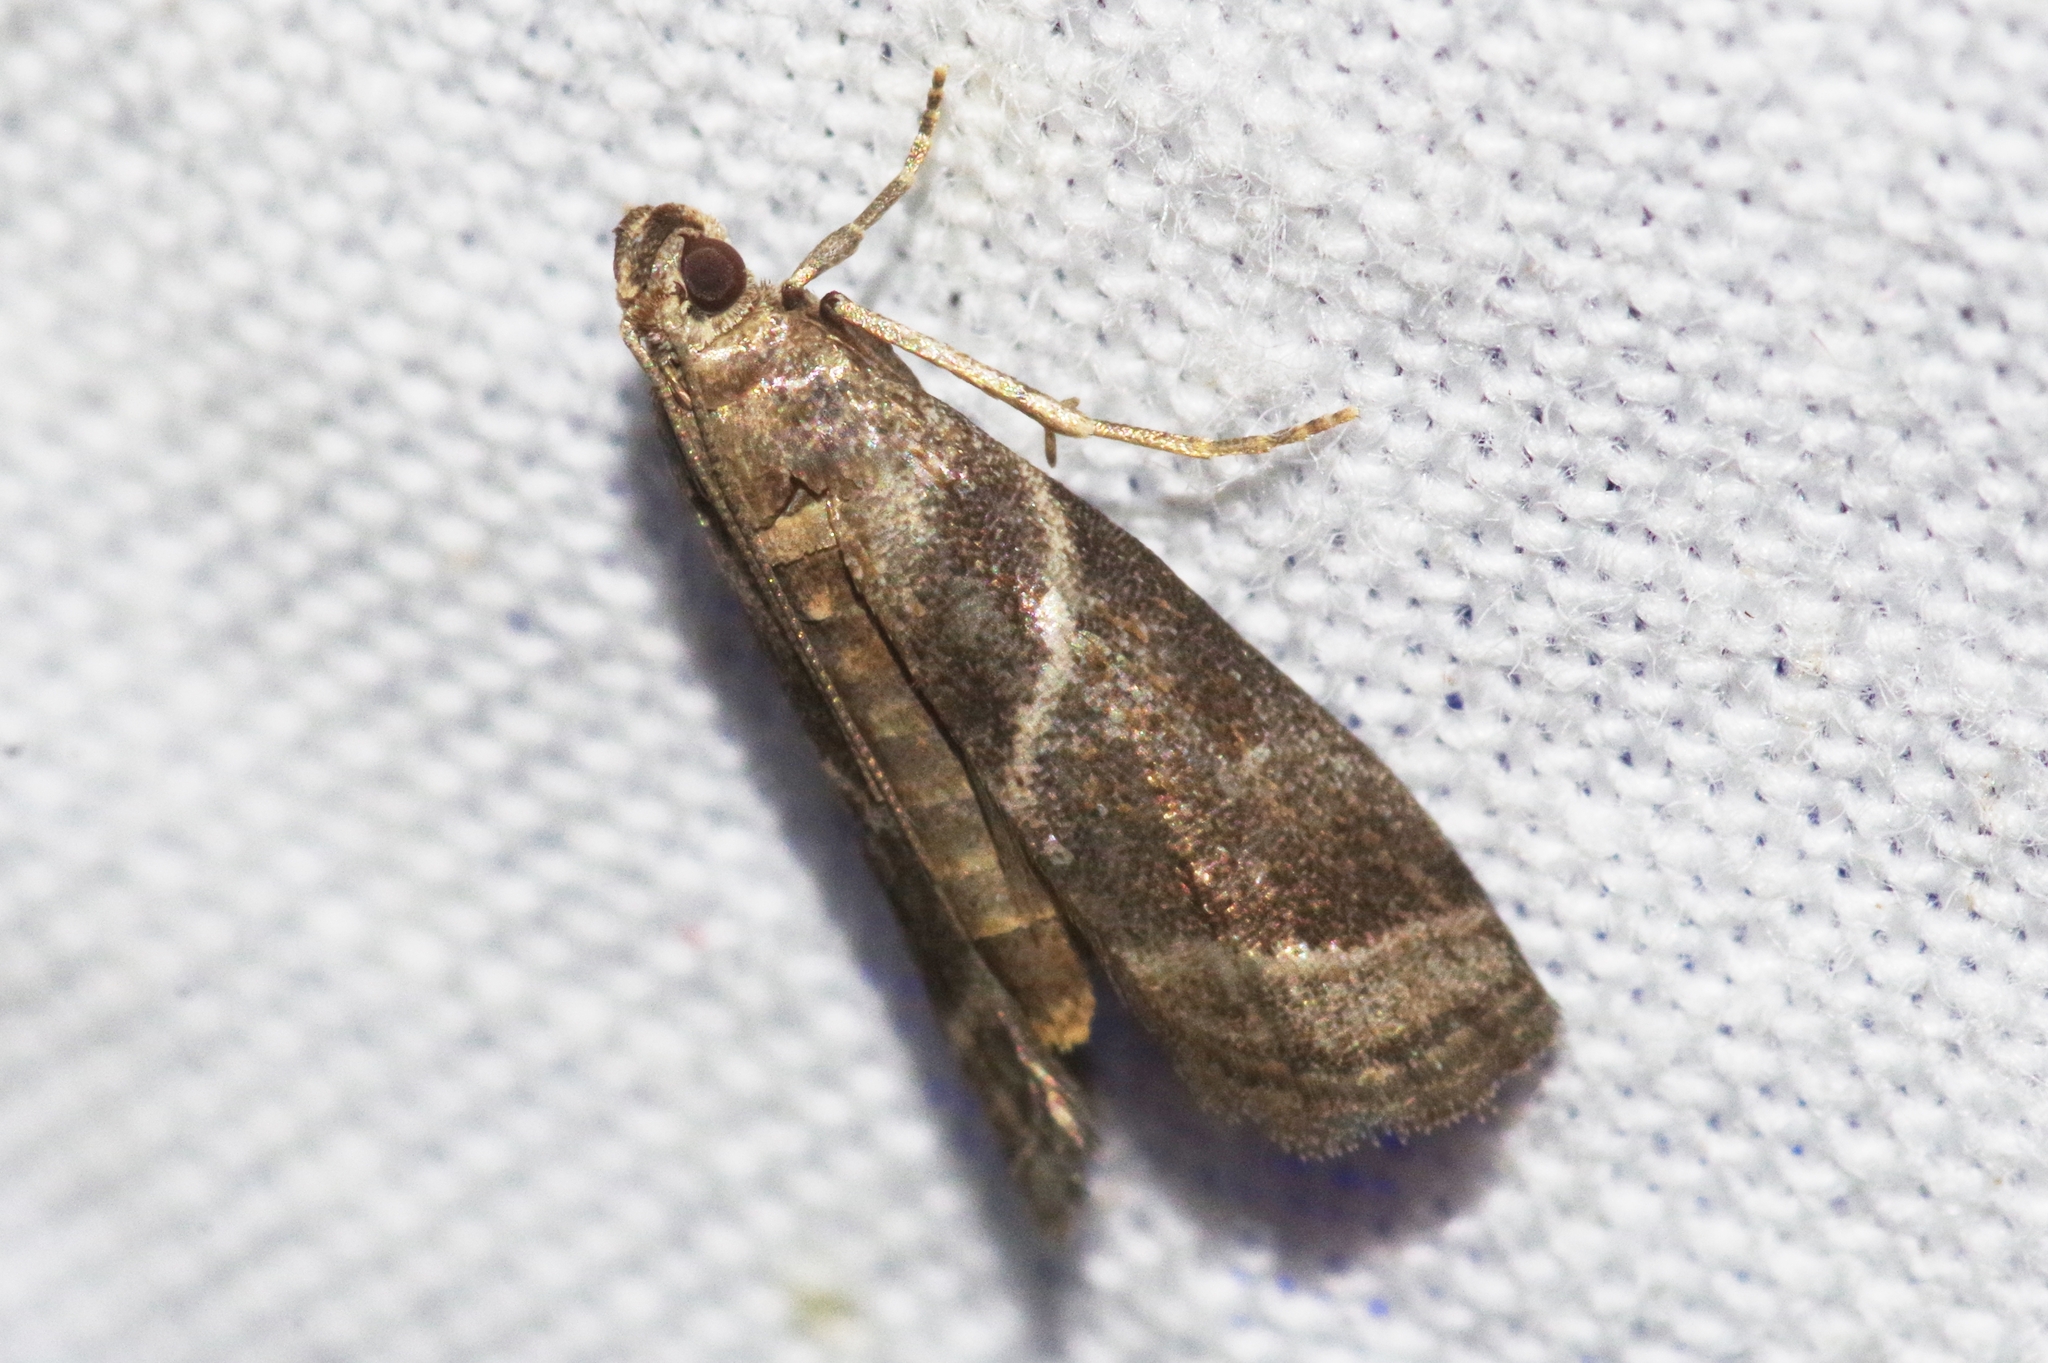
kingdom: Animalia
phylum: Arthropoda
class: Insecta
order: Lepidoptera
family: Pyralidae
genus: Nyctegretis
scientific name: Nyctegretis triangulella
